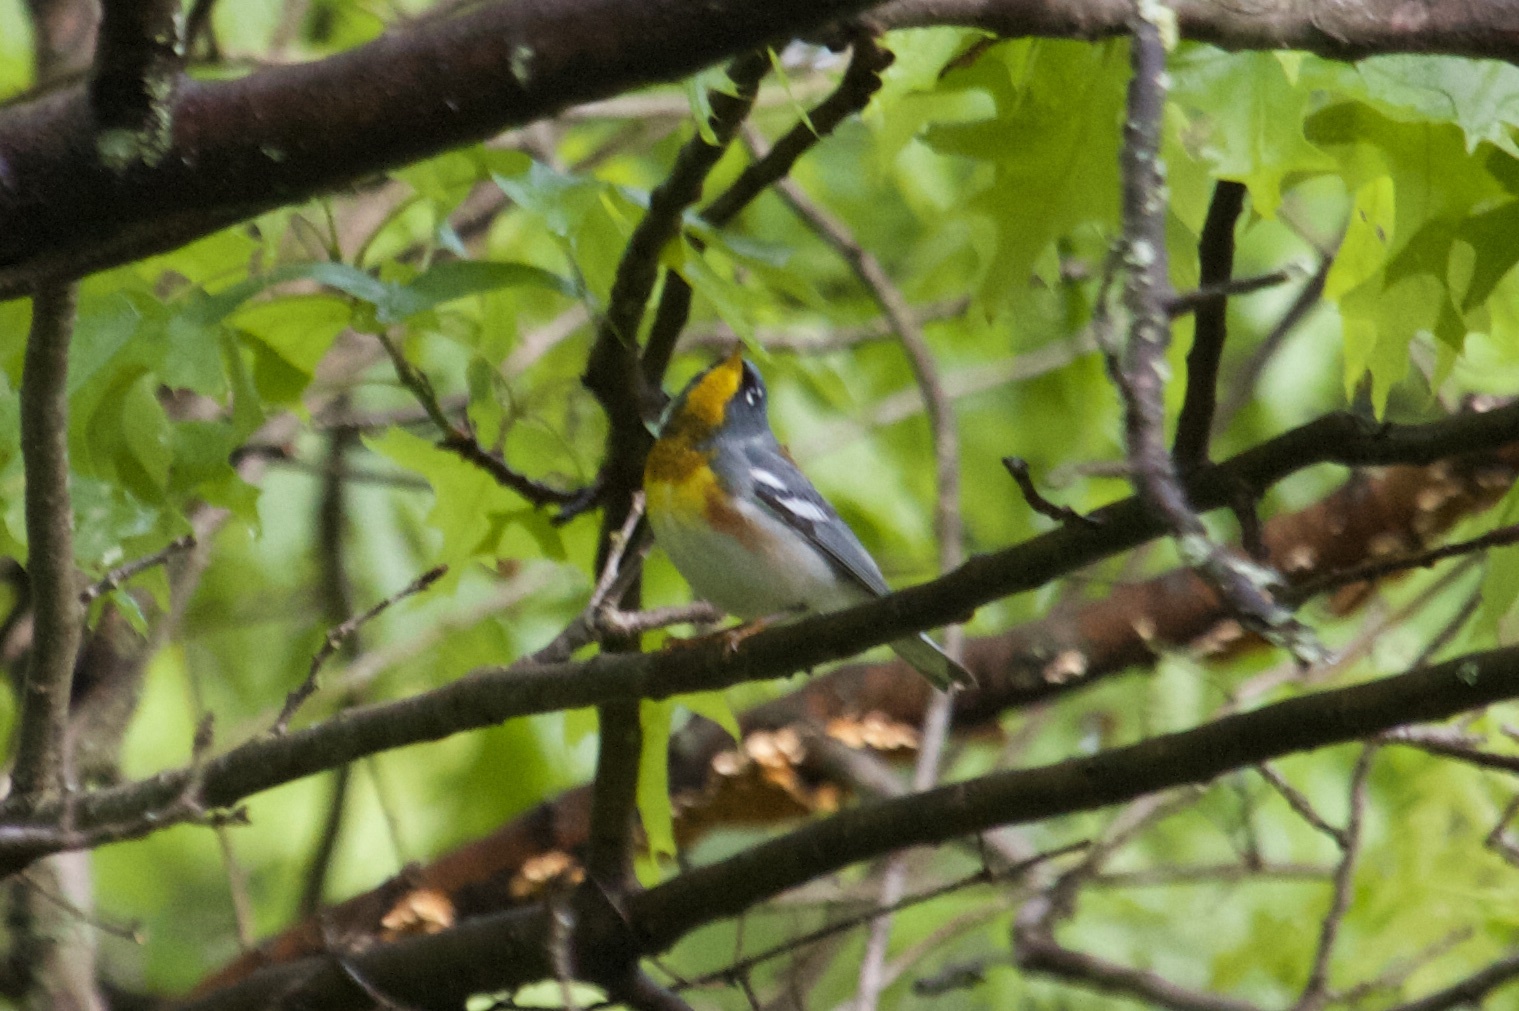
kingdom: Animalia
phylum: Chordata
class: Aves
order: Passeriformes
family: Parulidae
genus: Setophaga
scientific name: Setophaga americana
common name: Northern parula
